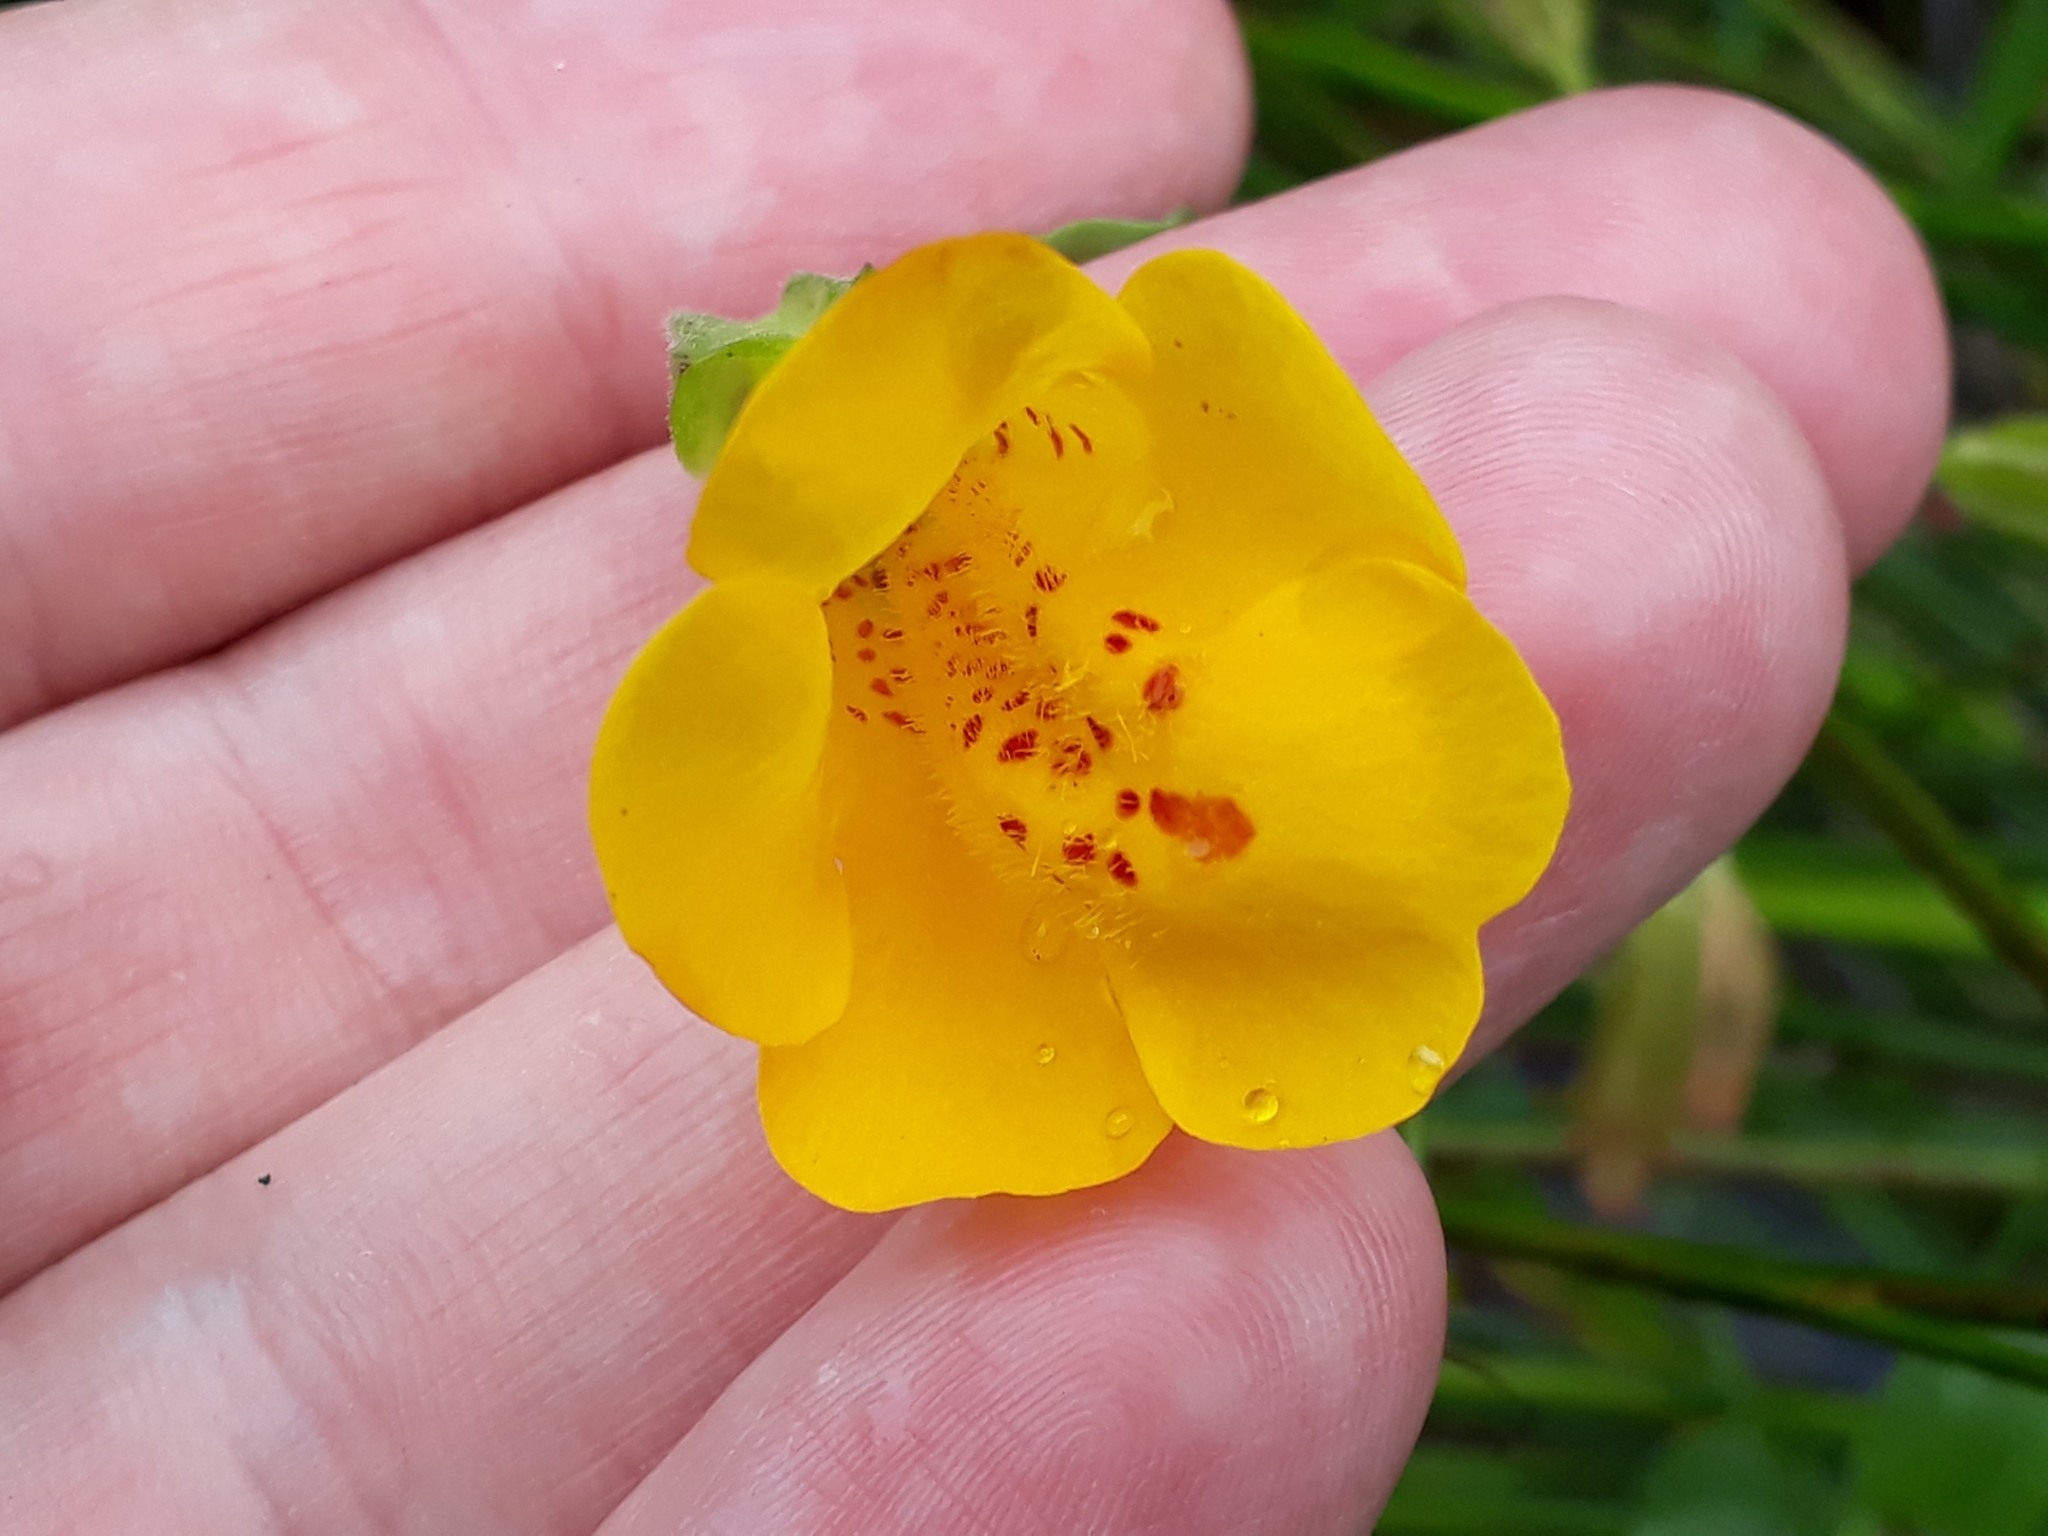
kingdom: Plantae
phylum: Tracheophyta
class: Magnoliopsida
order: Lamiales
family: Phrymaceae
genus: Erythranthe
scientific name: Erythranthe guttata
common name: Monkeyflower
